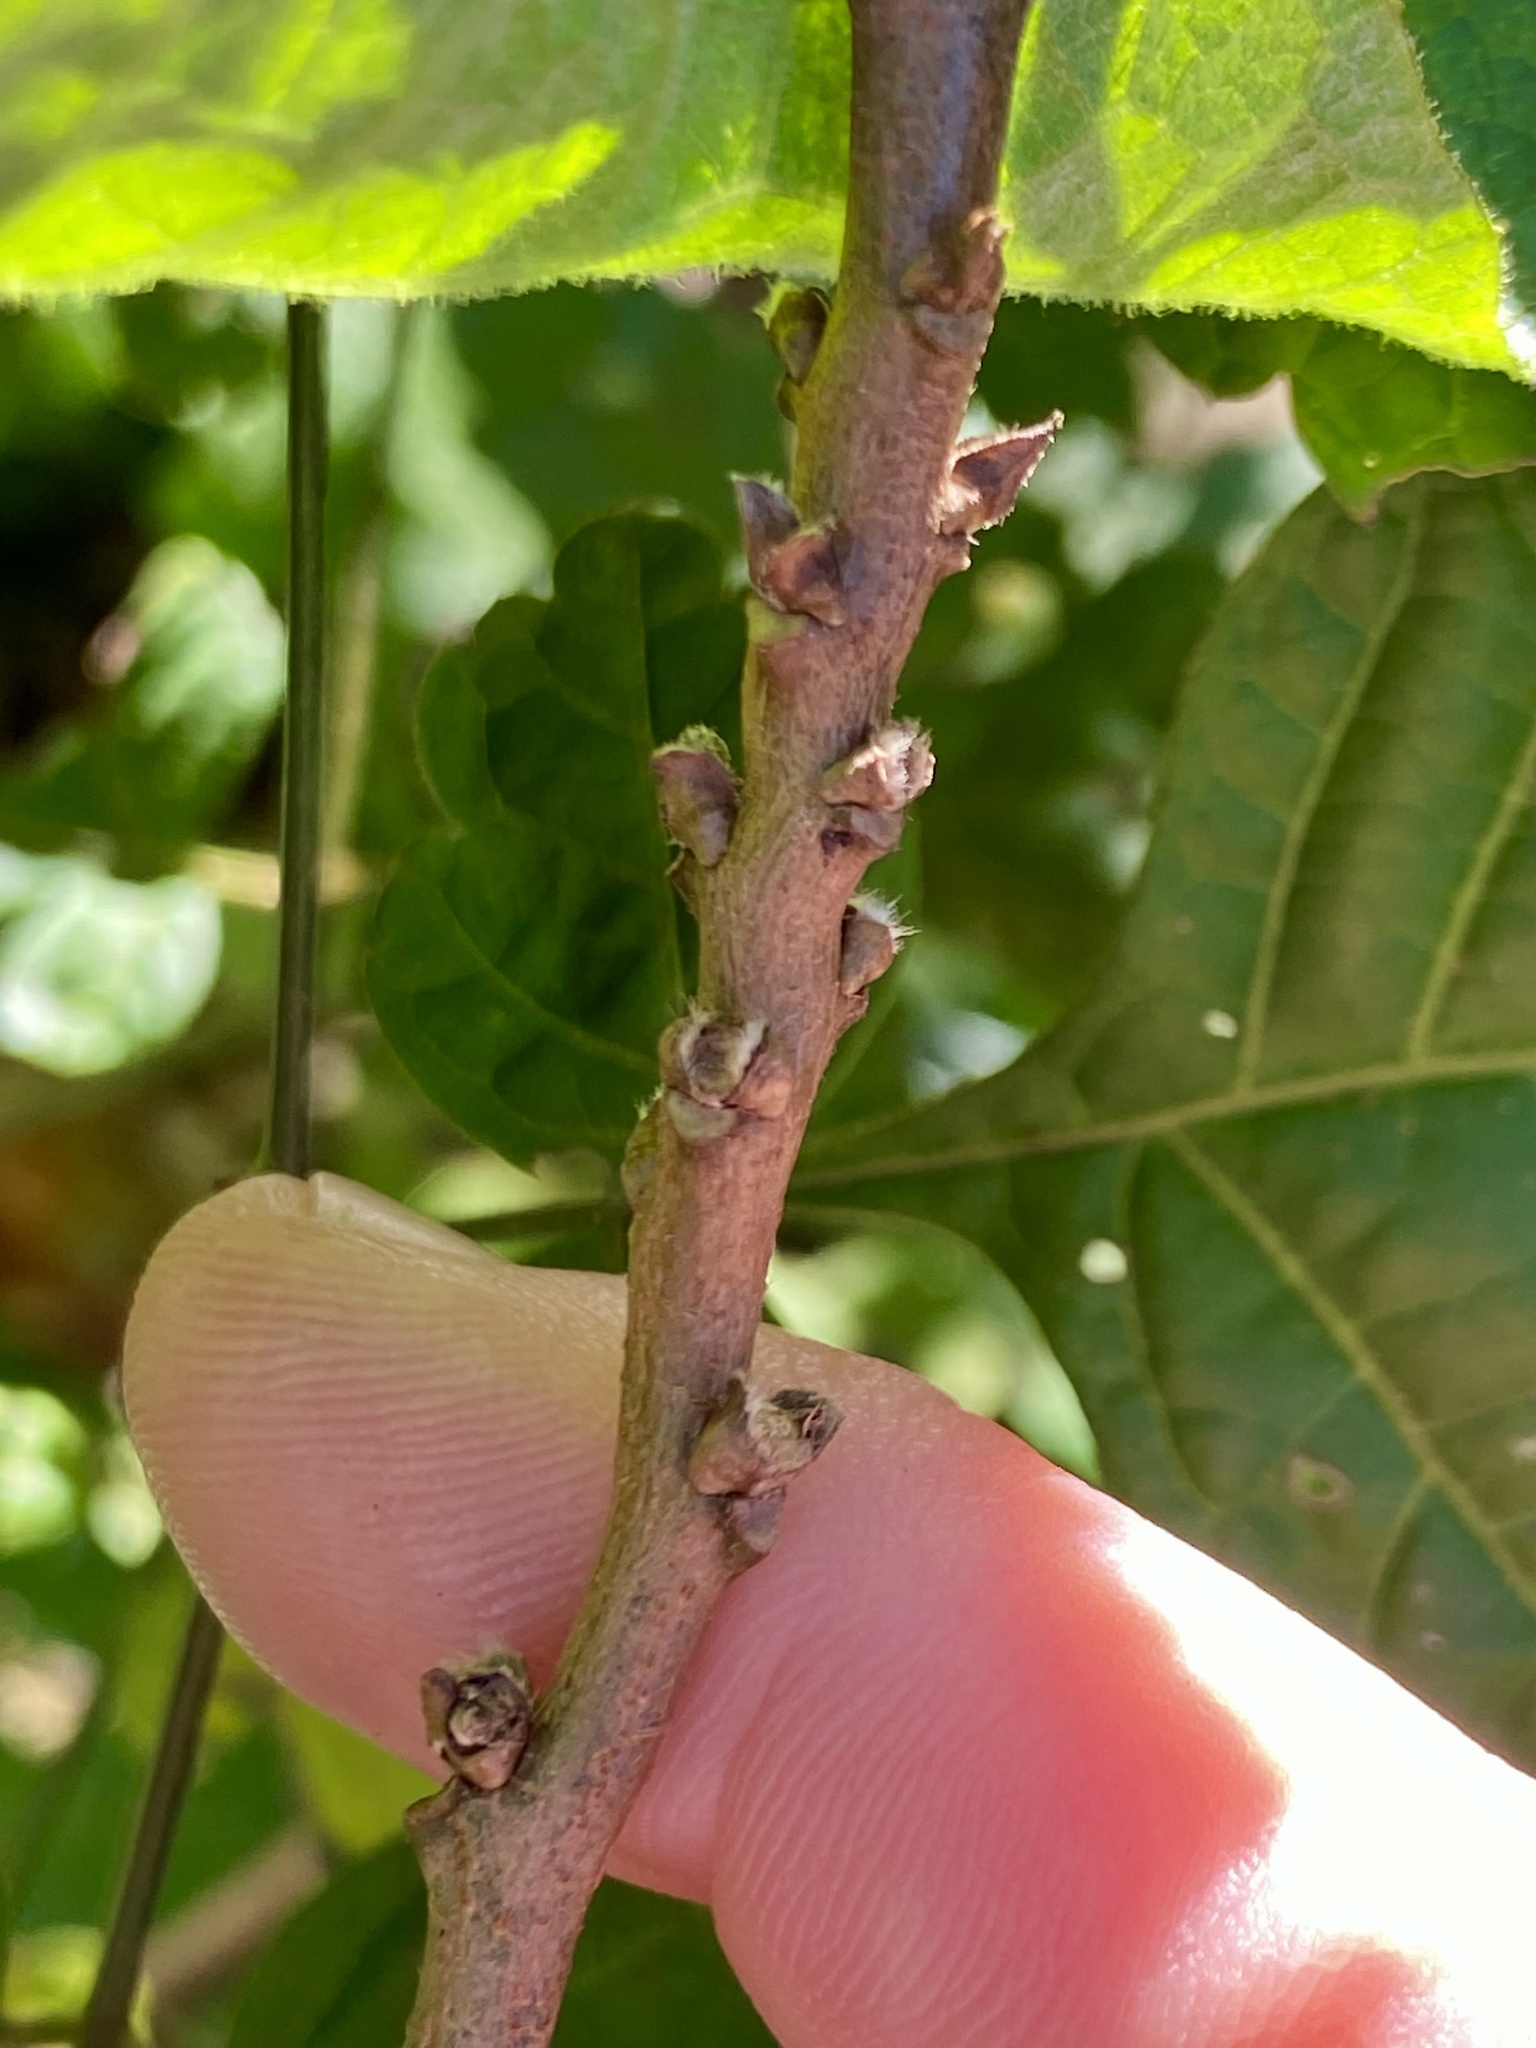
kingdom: Plantae
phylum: Tracheophyta
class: Magnoliopsida
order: Sapindales
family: Sapindaceae
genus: Koelreuteria
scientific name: Koelreuteria paniculata
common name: Pride-of-india
